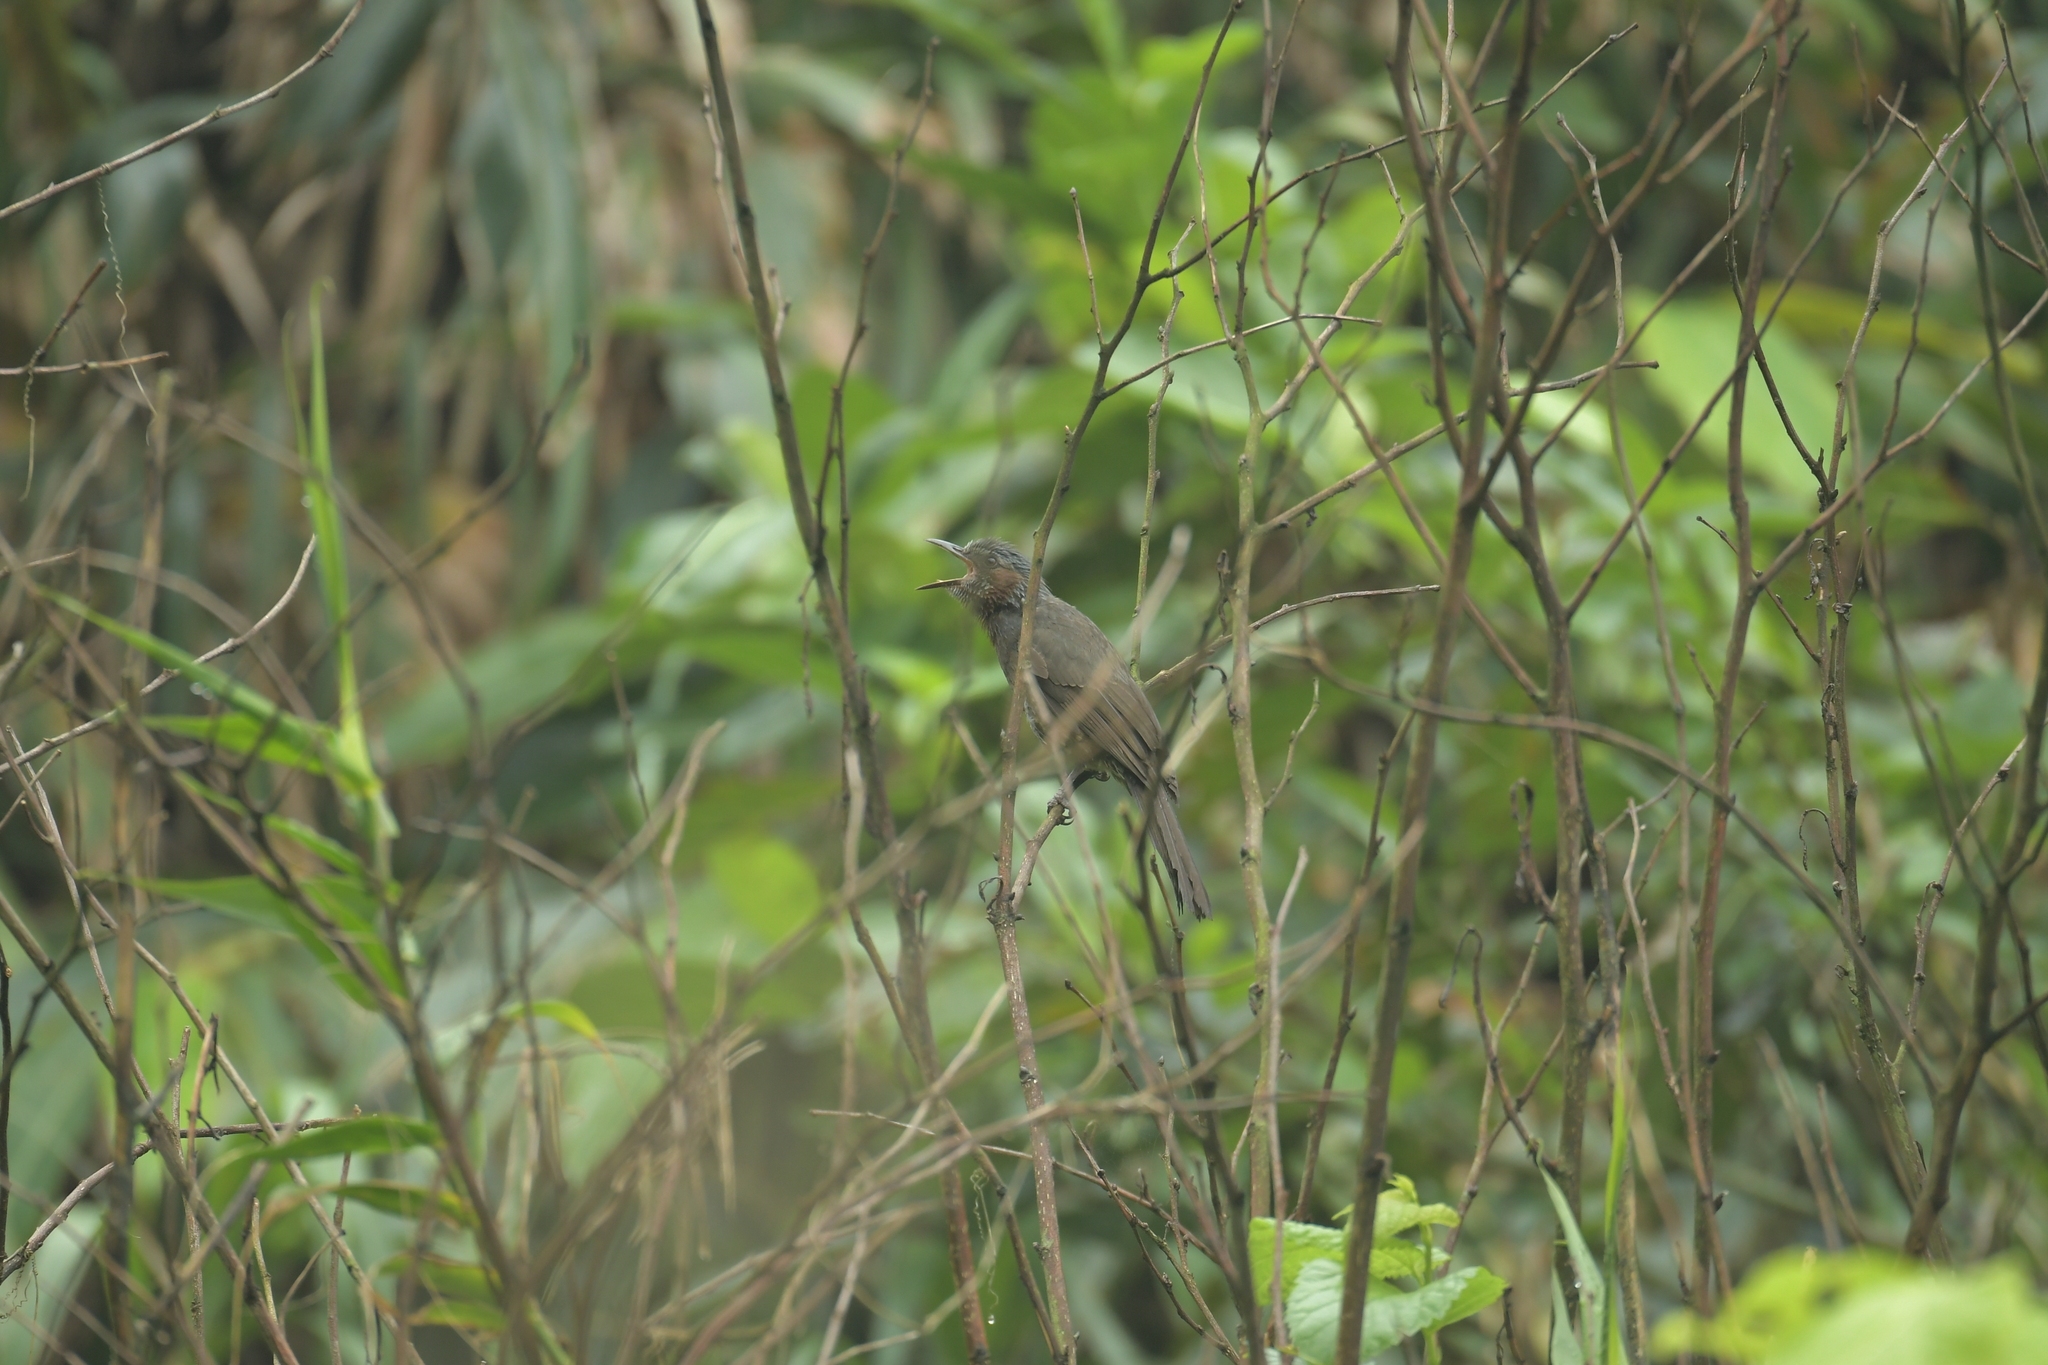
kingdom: Animalia
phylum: Chordata
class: Aves
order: Passeriformes
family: Pycnonotidae
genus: Hypsipetes
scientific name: Hypsipetes amaurotis
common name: Brown-eared bulbul
